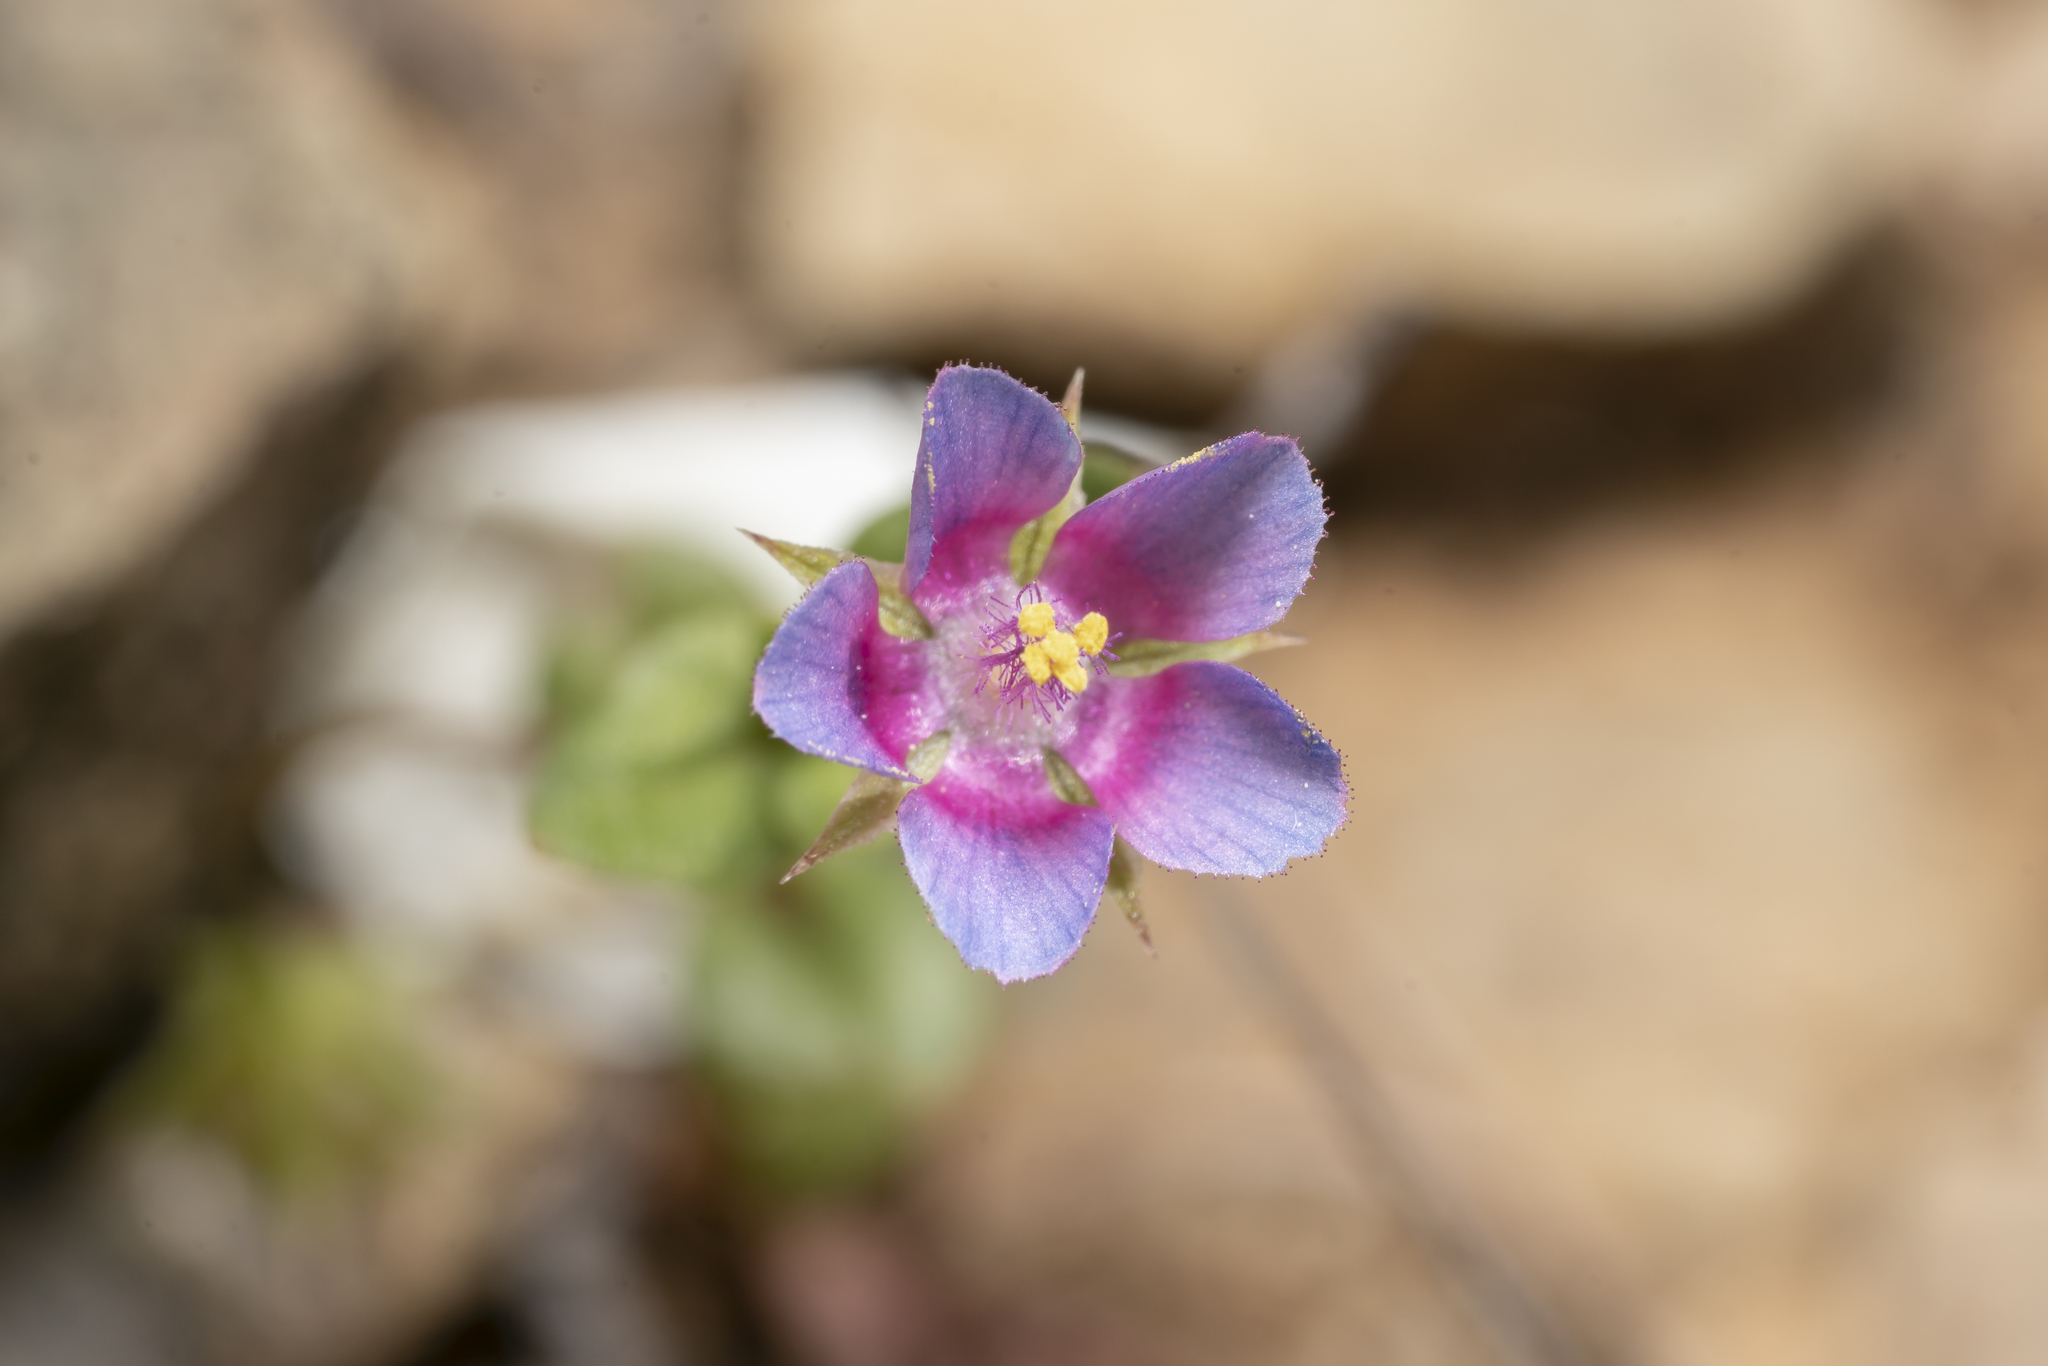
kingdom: Plantae
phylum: Tracheophyta
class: Magnoliopsida
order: Ericales
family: Primulaceae
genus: Lysimachia
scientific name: Lysimachia loeflingii
